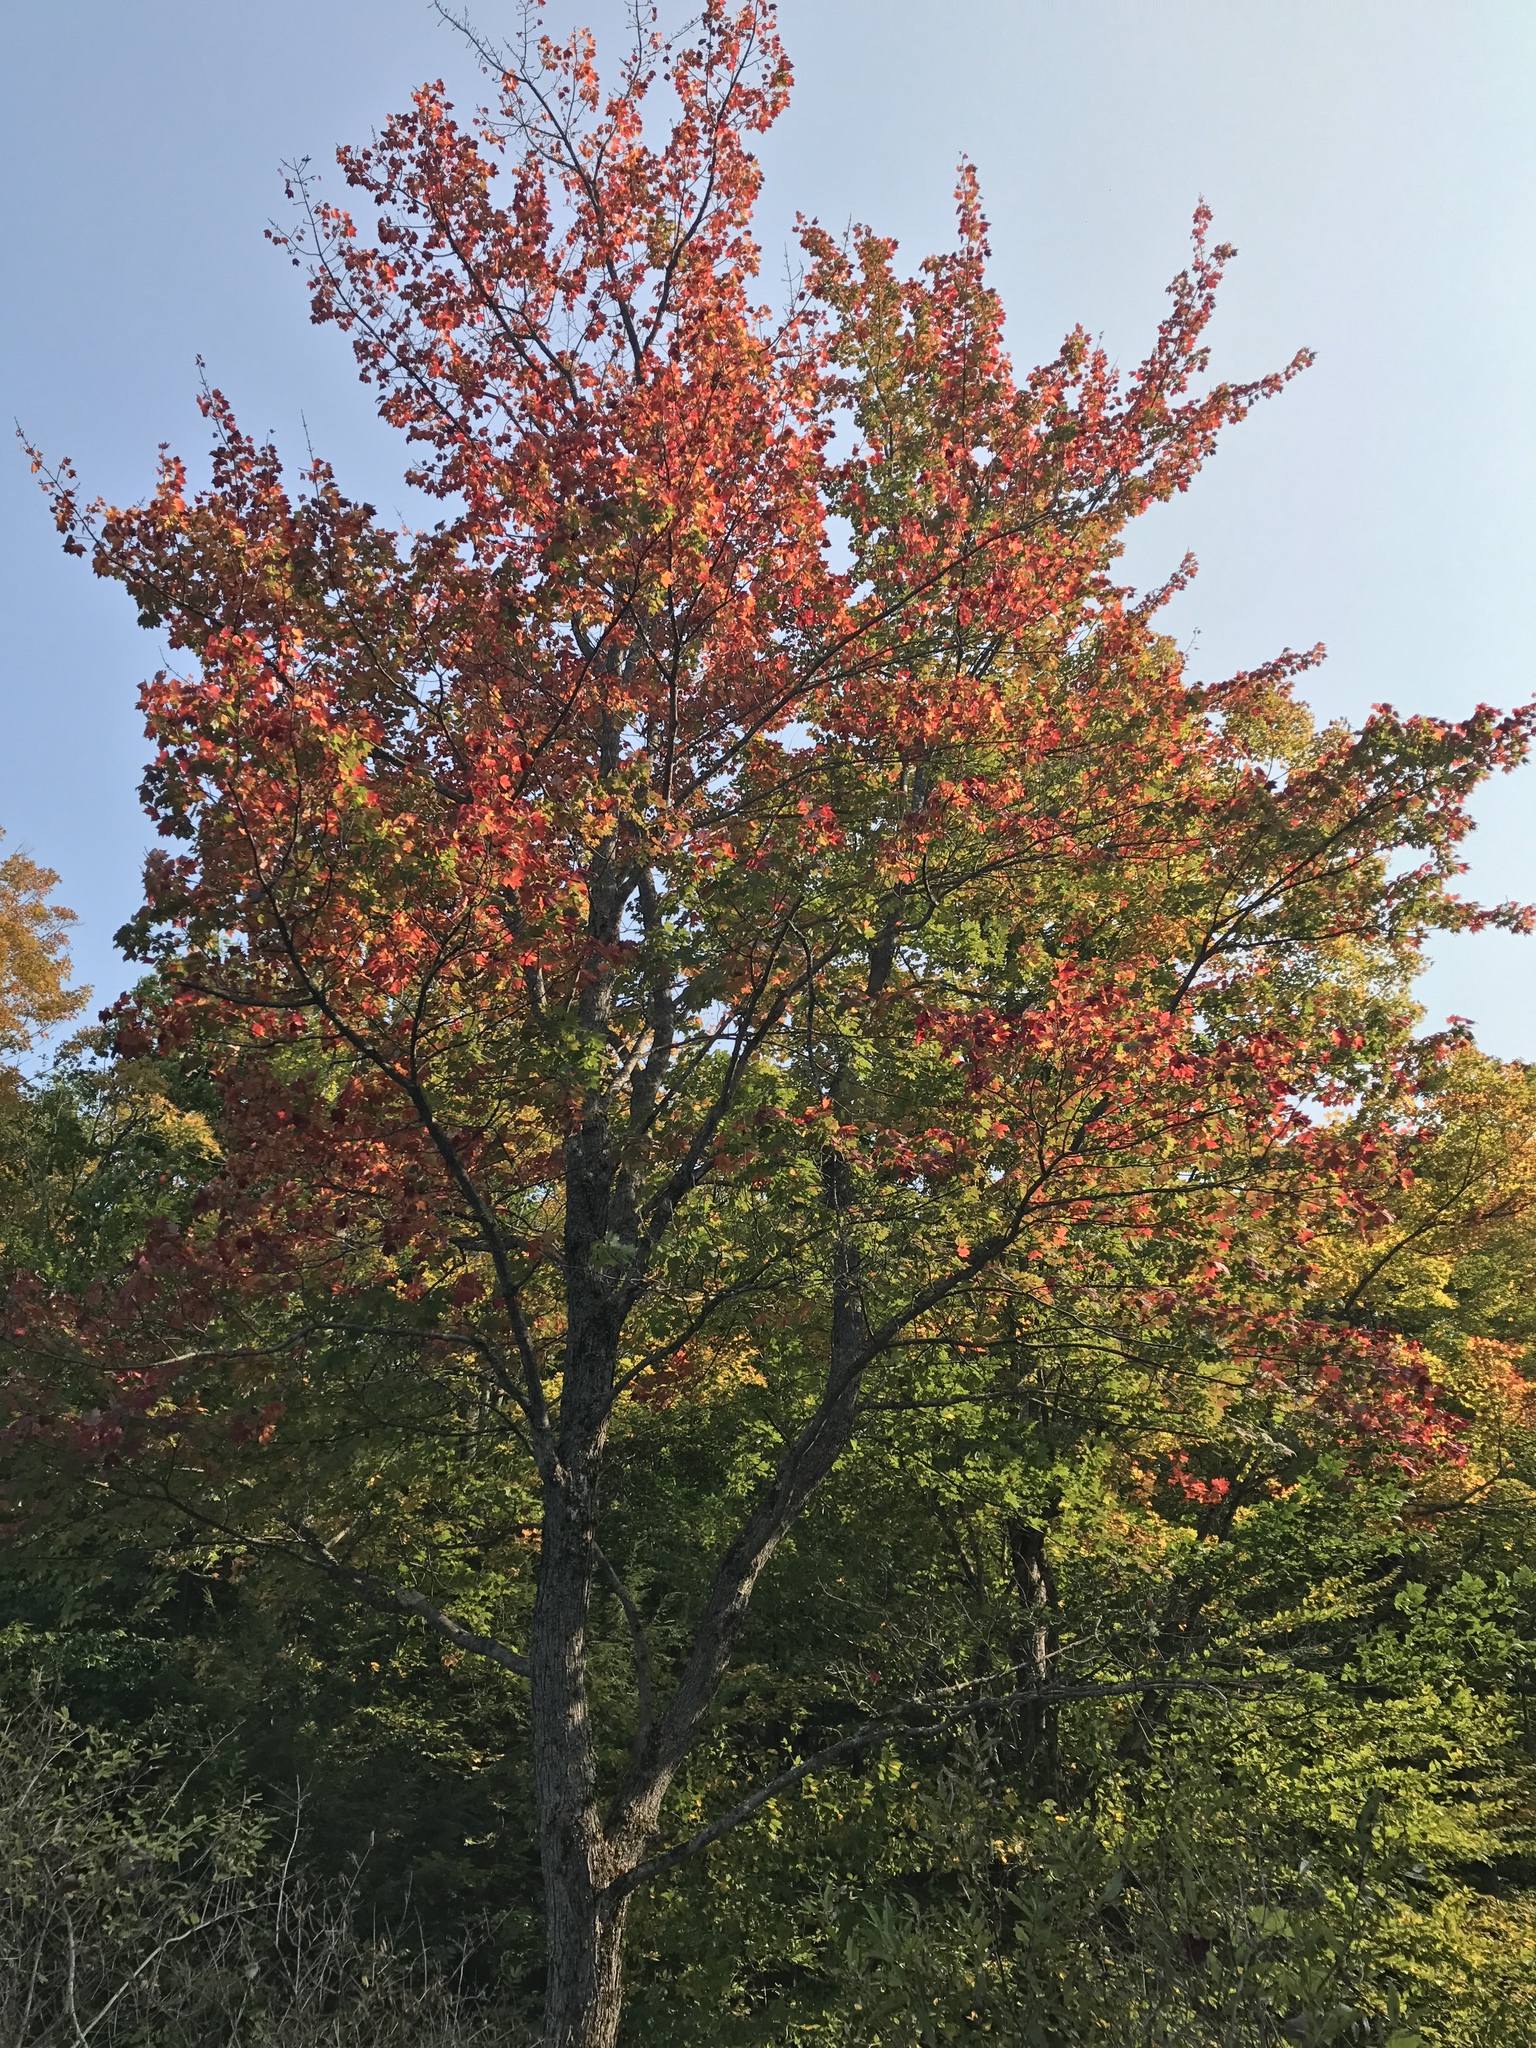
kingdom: Plantae
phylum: Tracheophyta
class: Magnoliopsida
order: Sapindales
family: Sapindaceae
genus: Acer
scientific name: Acer rubrum
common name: Red maple
